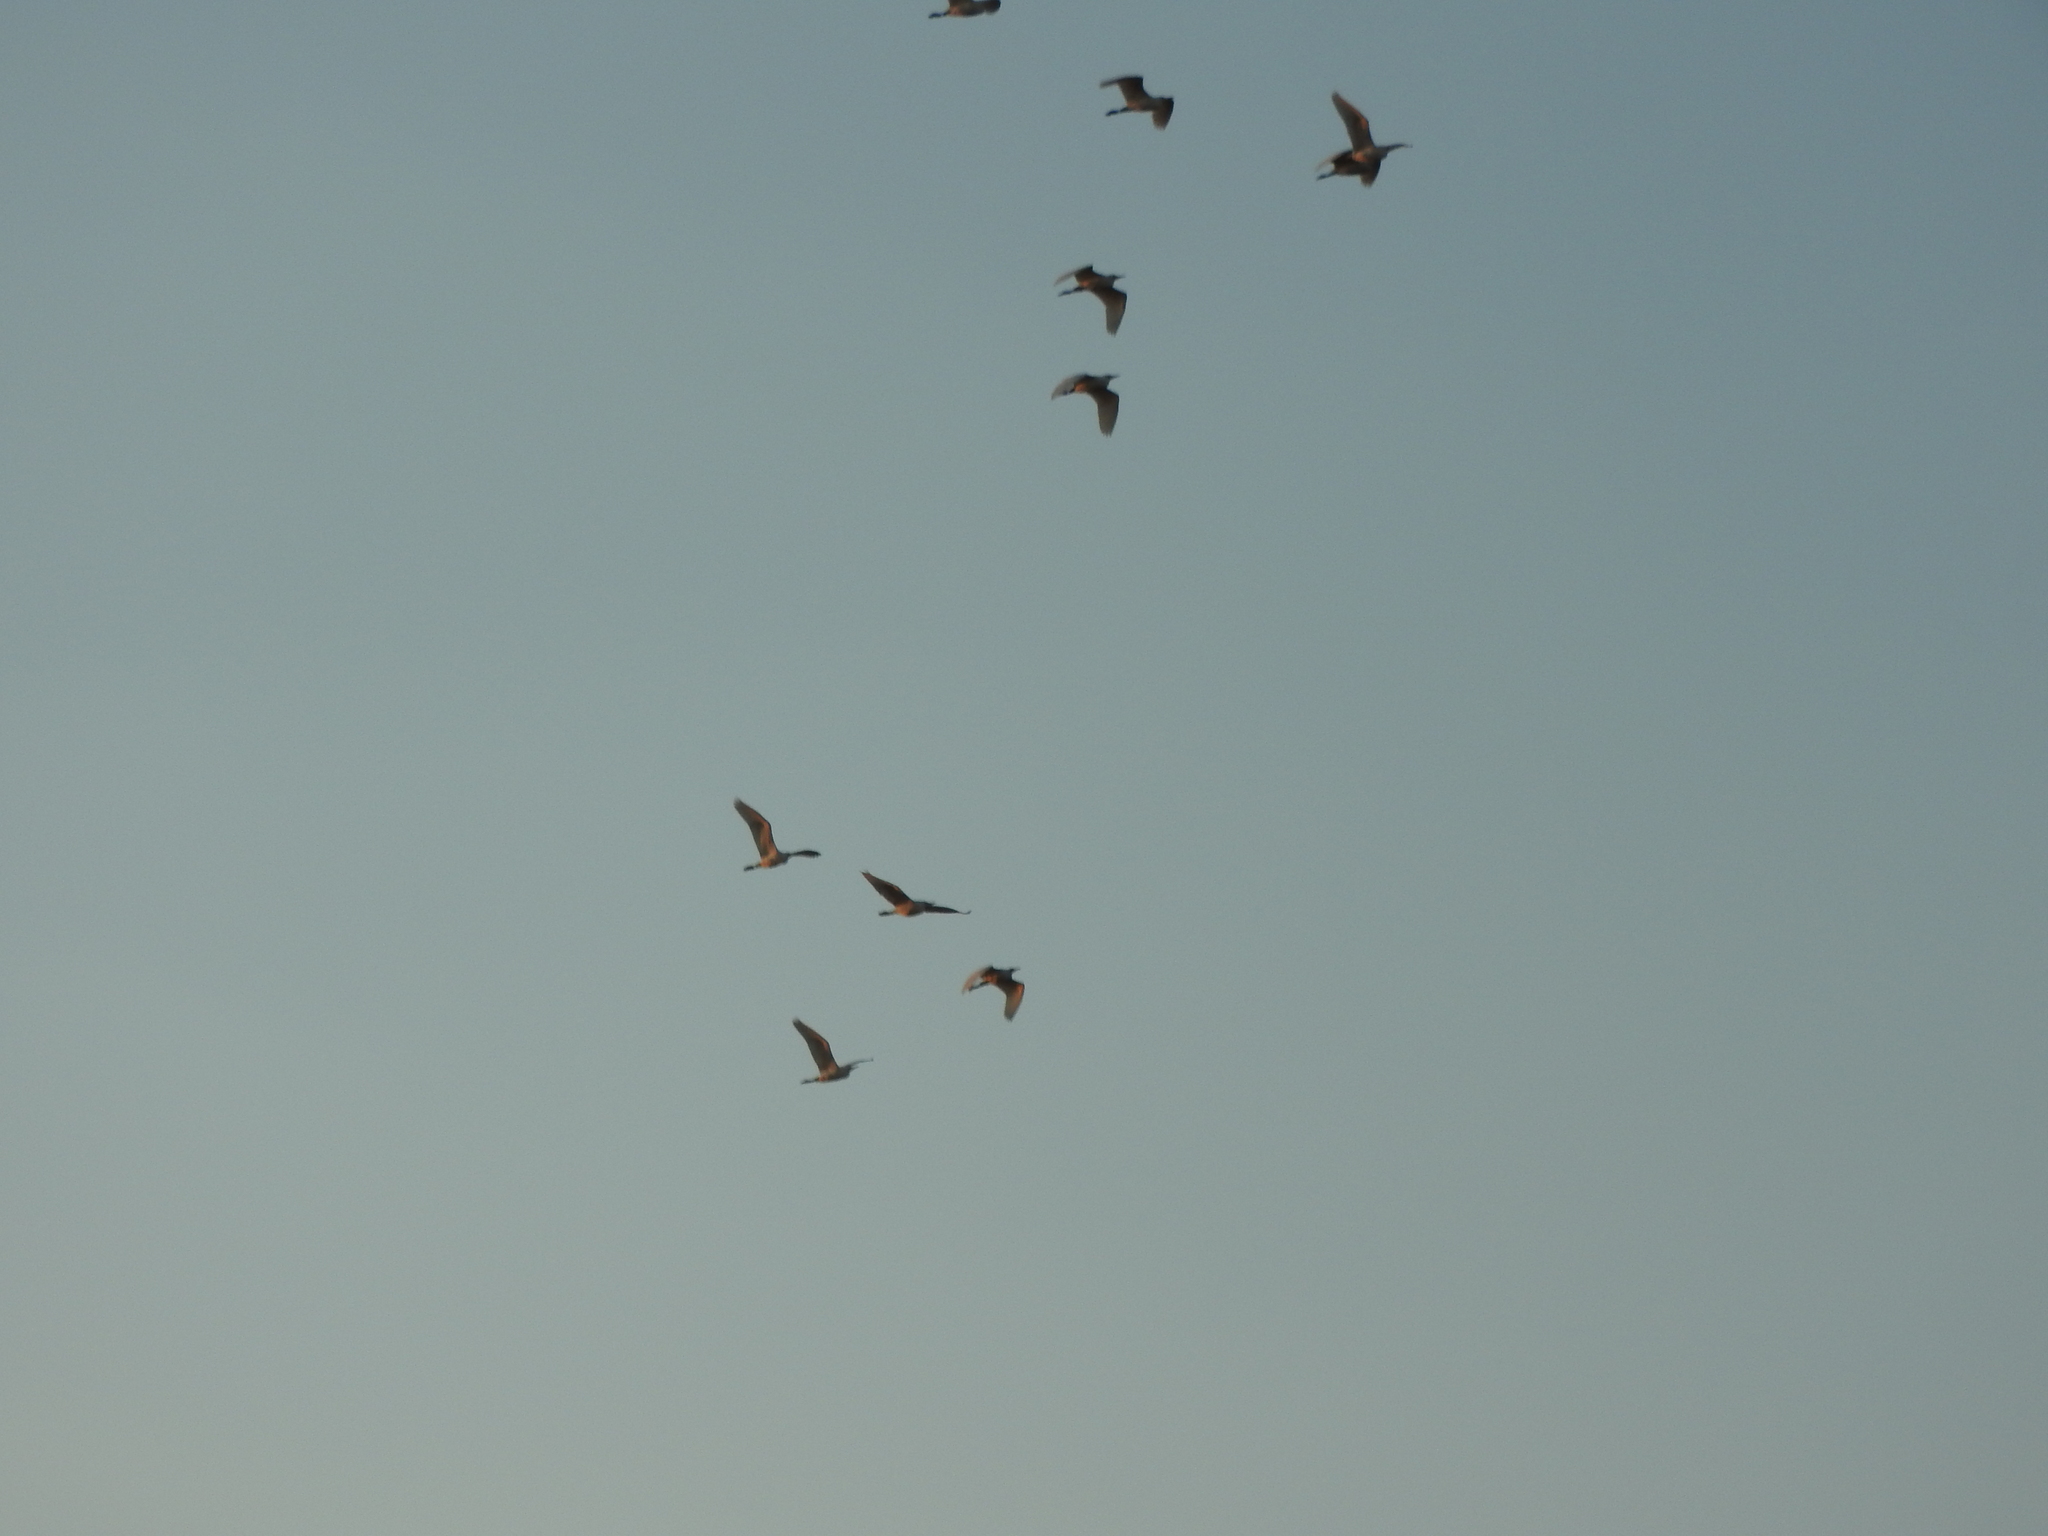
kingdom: Animalia
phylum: Chordata
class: Aves
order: Pelecaniformes
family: Ardeidae
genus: Bubulcus
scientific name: Bubulcus ibis
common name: Cattle egret
